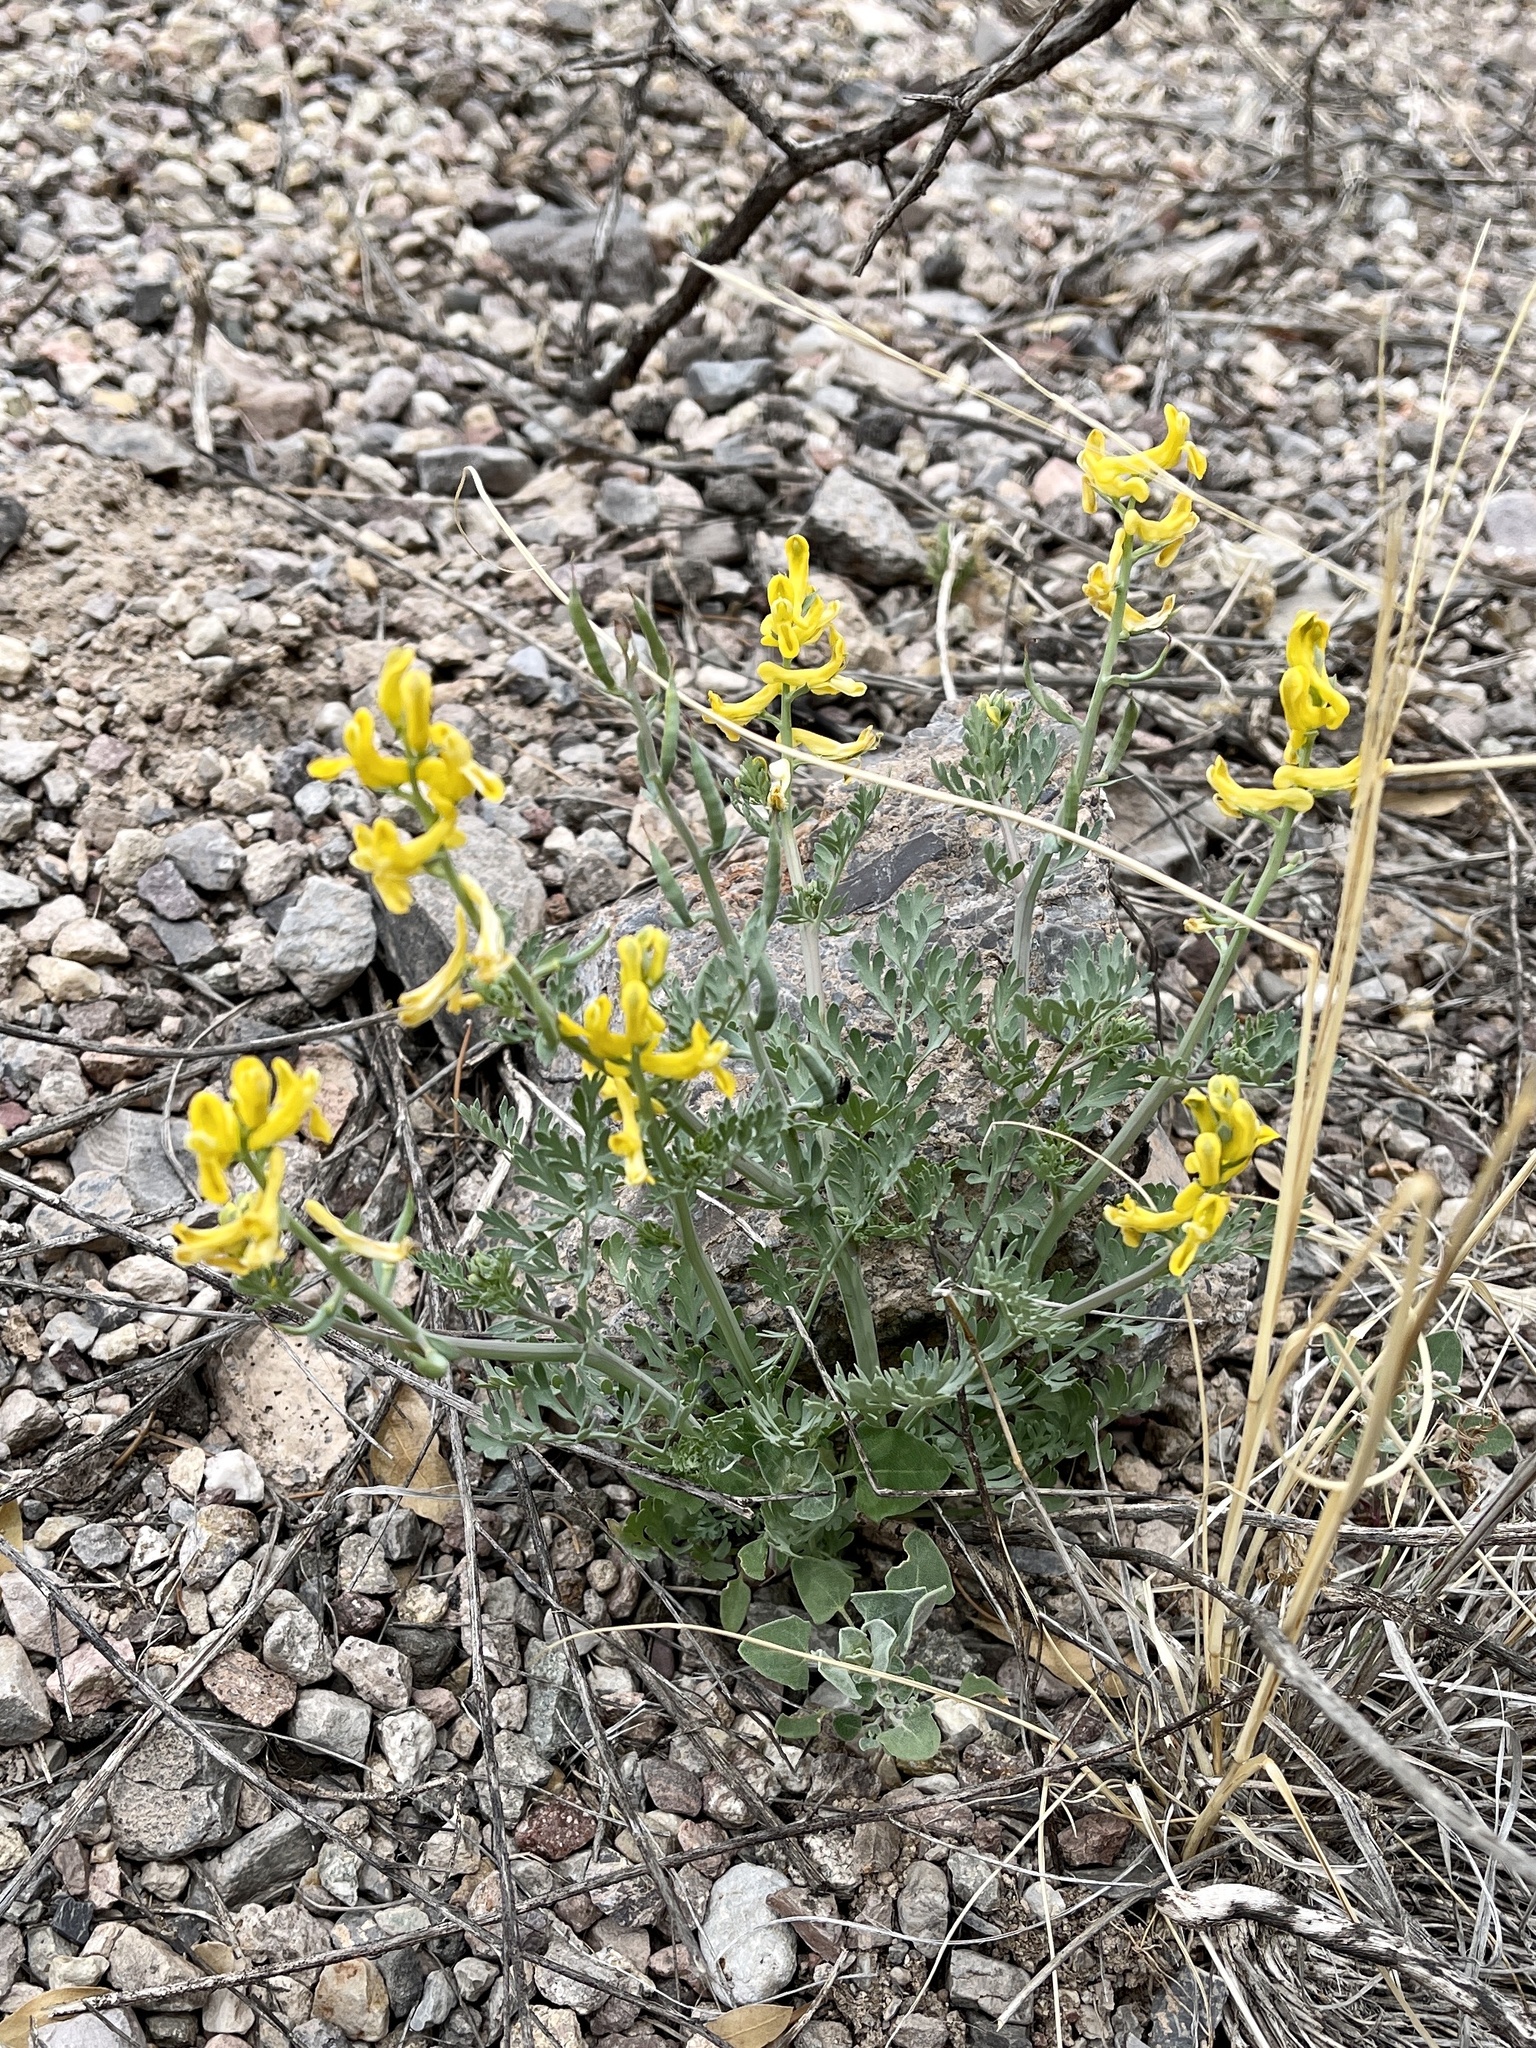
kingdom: Plantae
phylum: Tracheophyta
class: Magnoliopsida
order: Ranunculales
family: Papaveraceae
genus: Corydalis
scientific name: Corydalis aurea
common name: Golden corydalis
